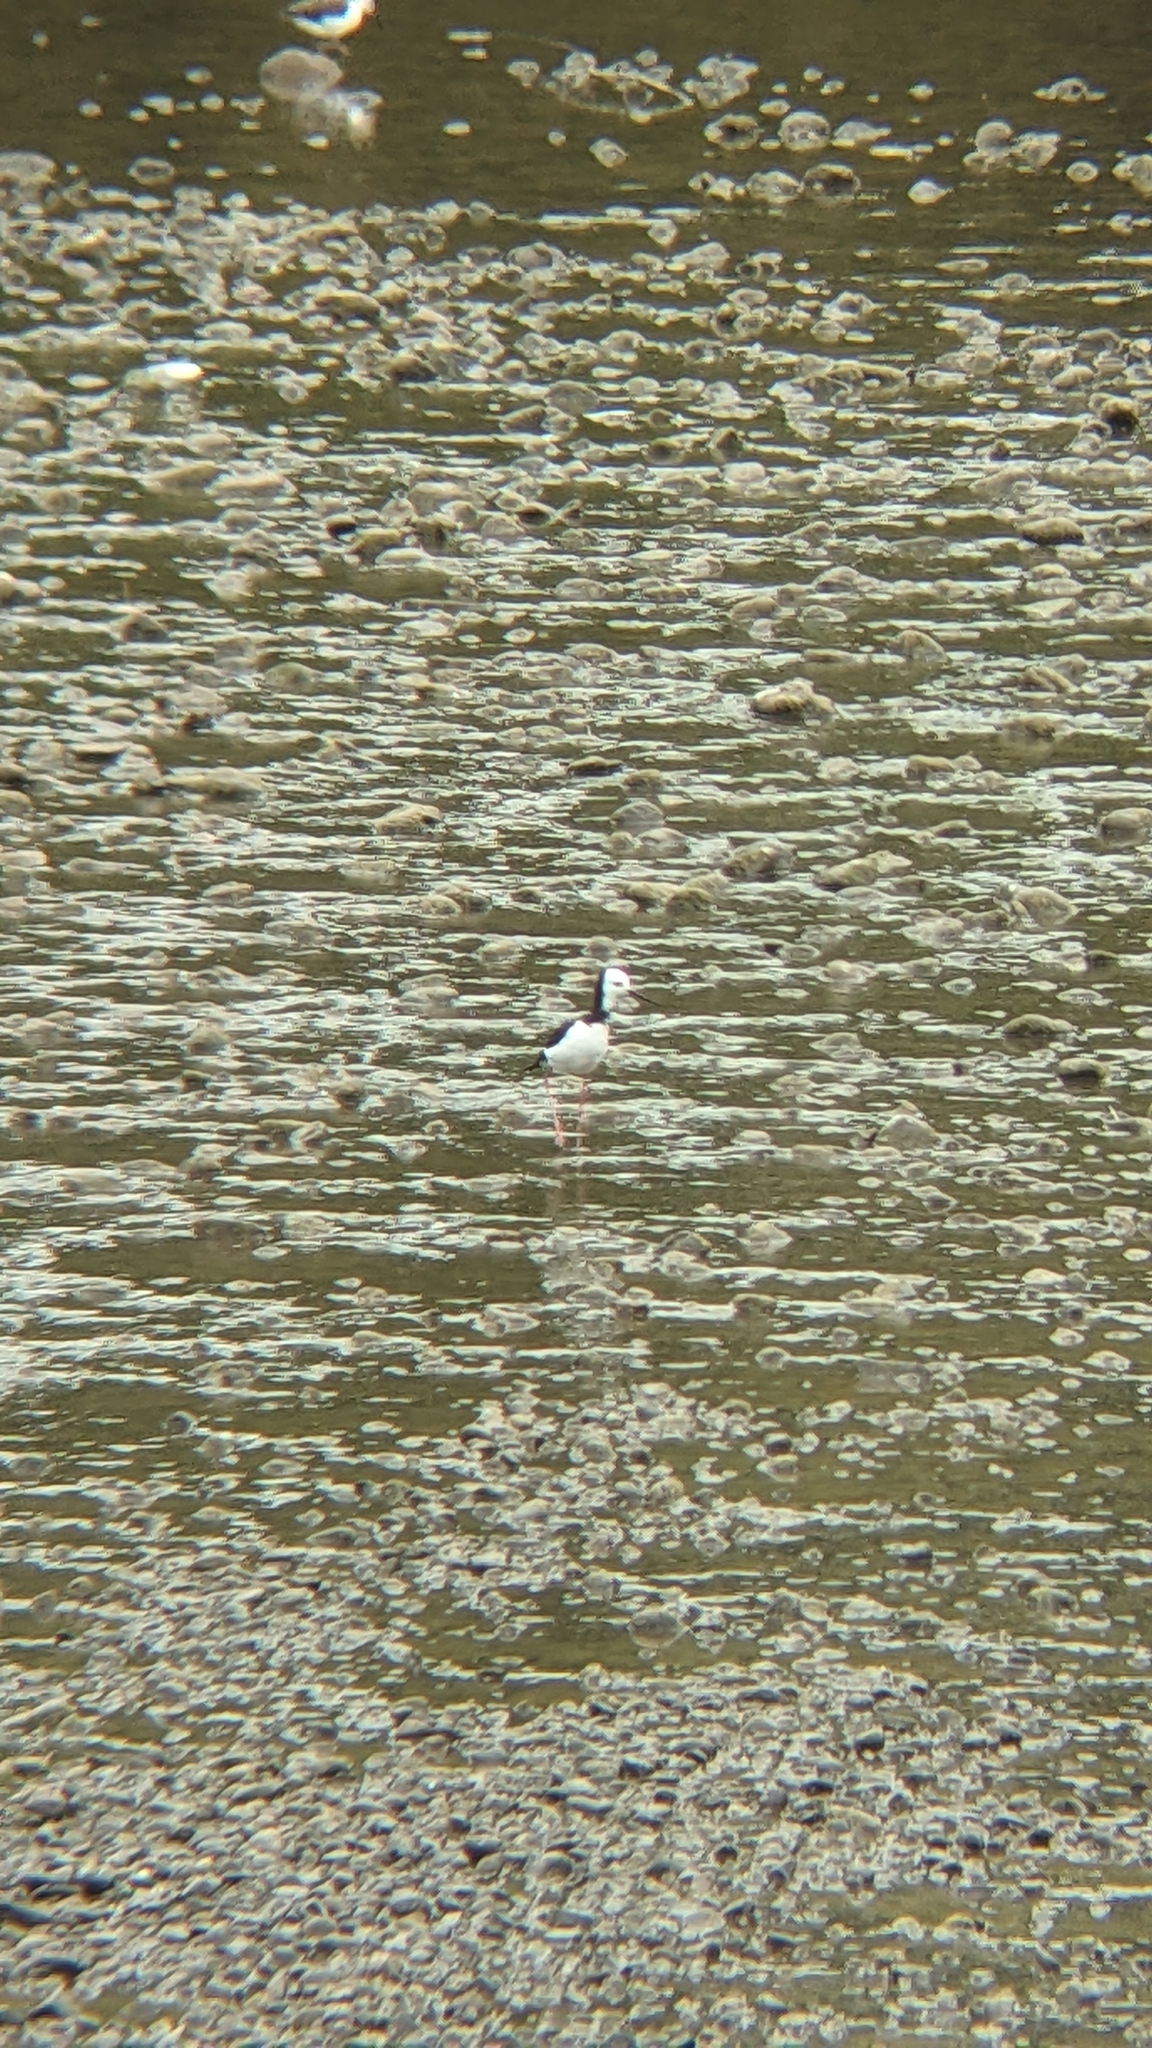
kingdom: Animalia
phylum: Chordata
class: Aves
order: Charadriiformes
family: Recurvirostridae
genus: Himantopus
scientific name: Himantopus leucocephalus
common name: White-headed stilt
